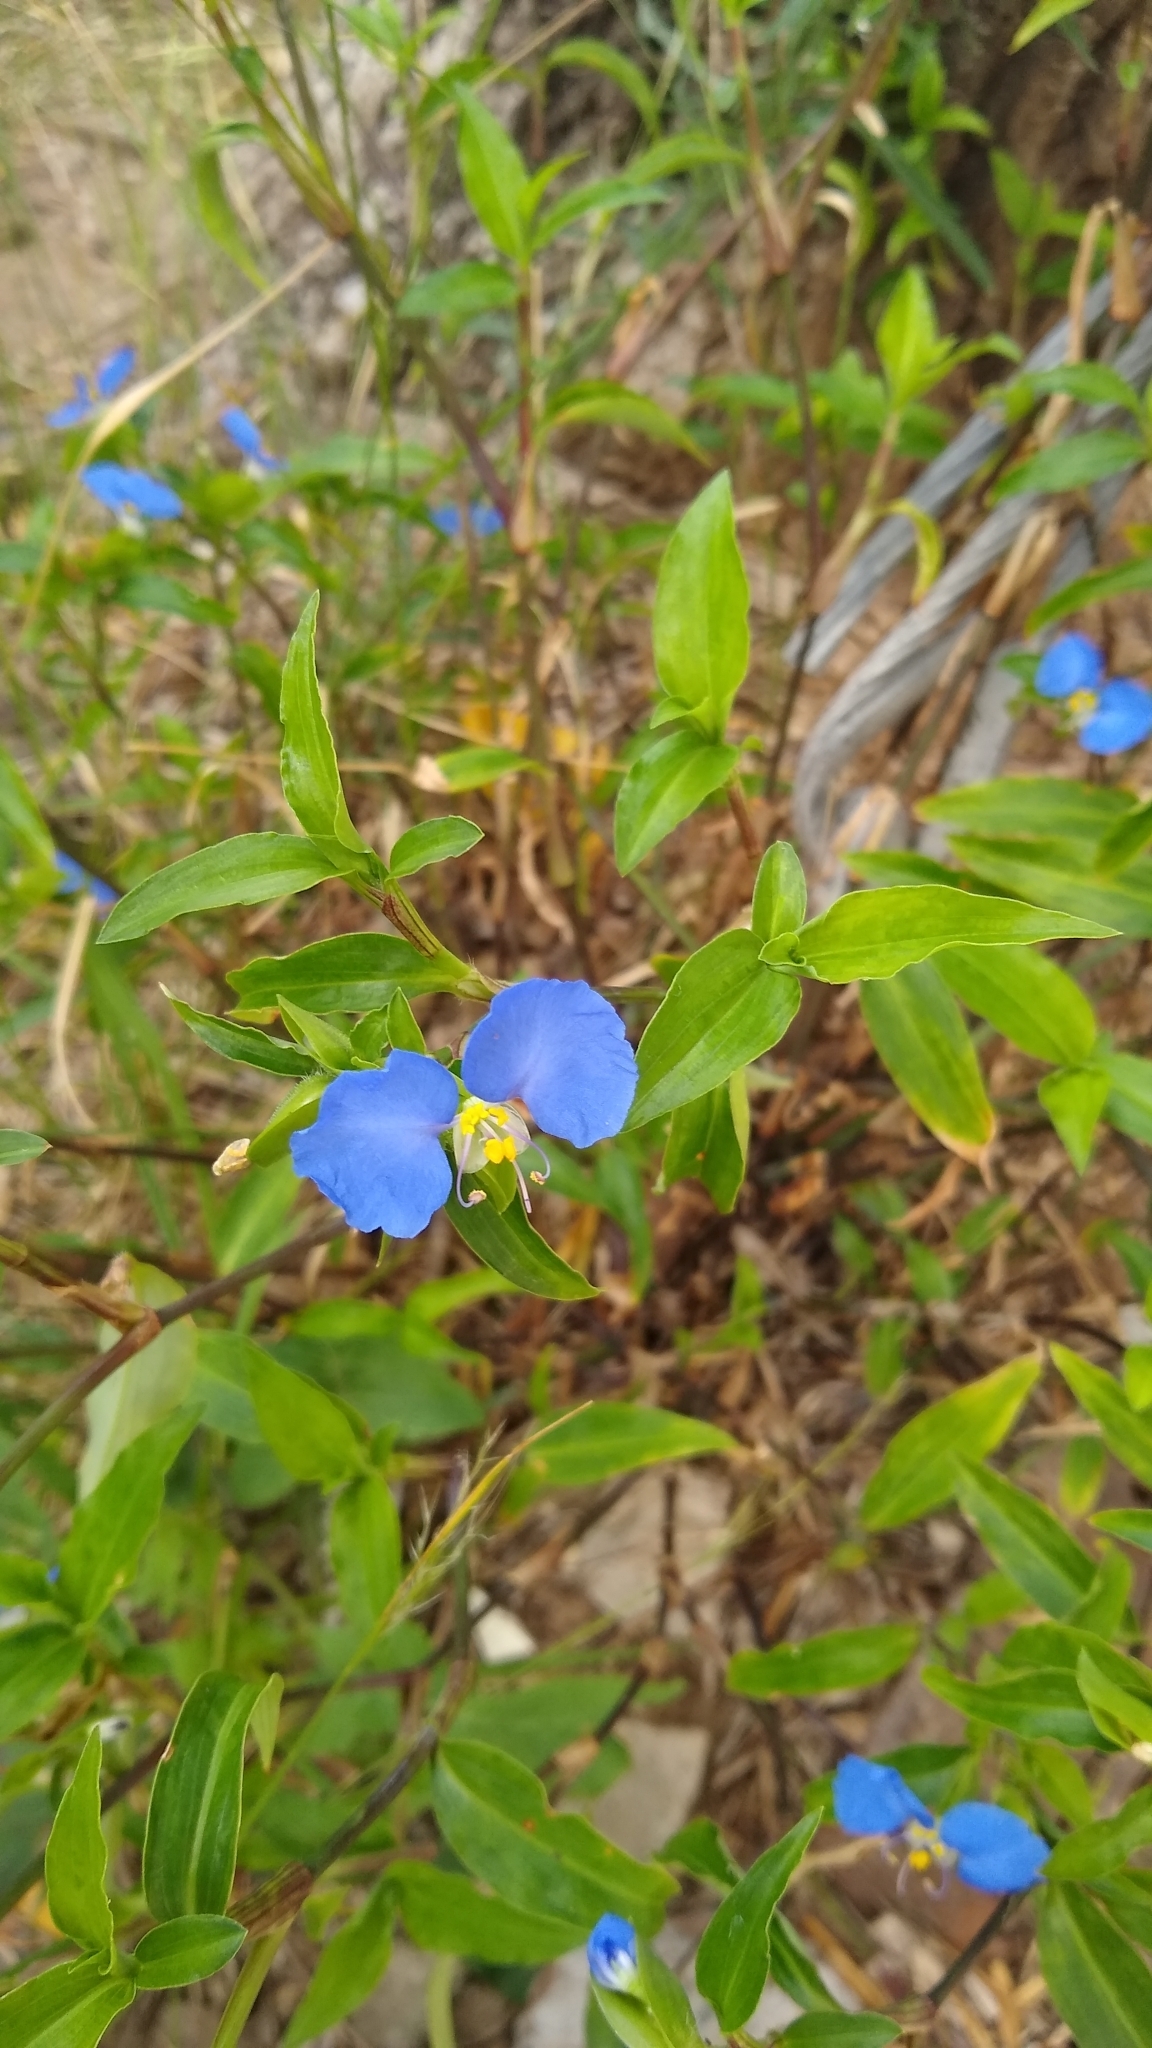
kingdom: Plantae
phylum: Tracheophyta
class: Liliopsida
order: Commelinales
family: Commelinaceae
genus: Commelina
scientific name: Commelina erecta
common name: Blousel blommetjie
